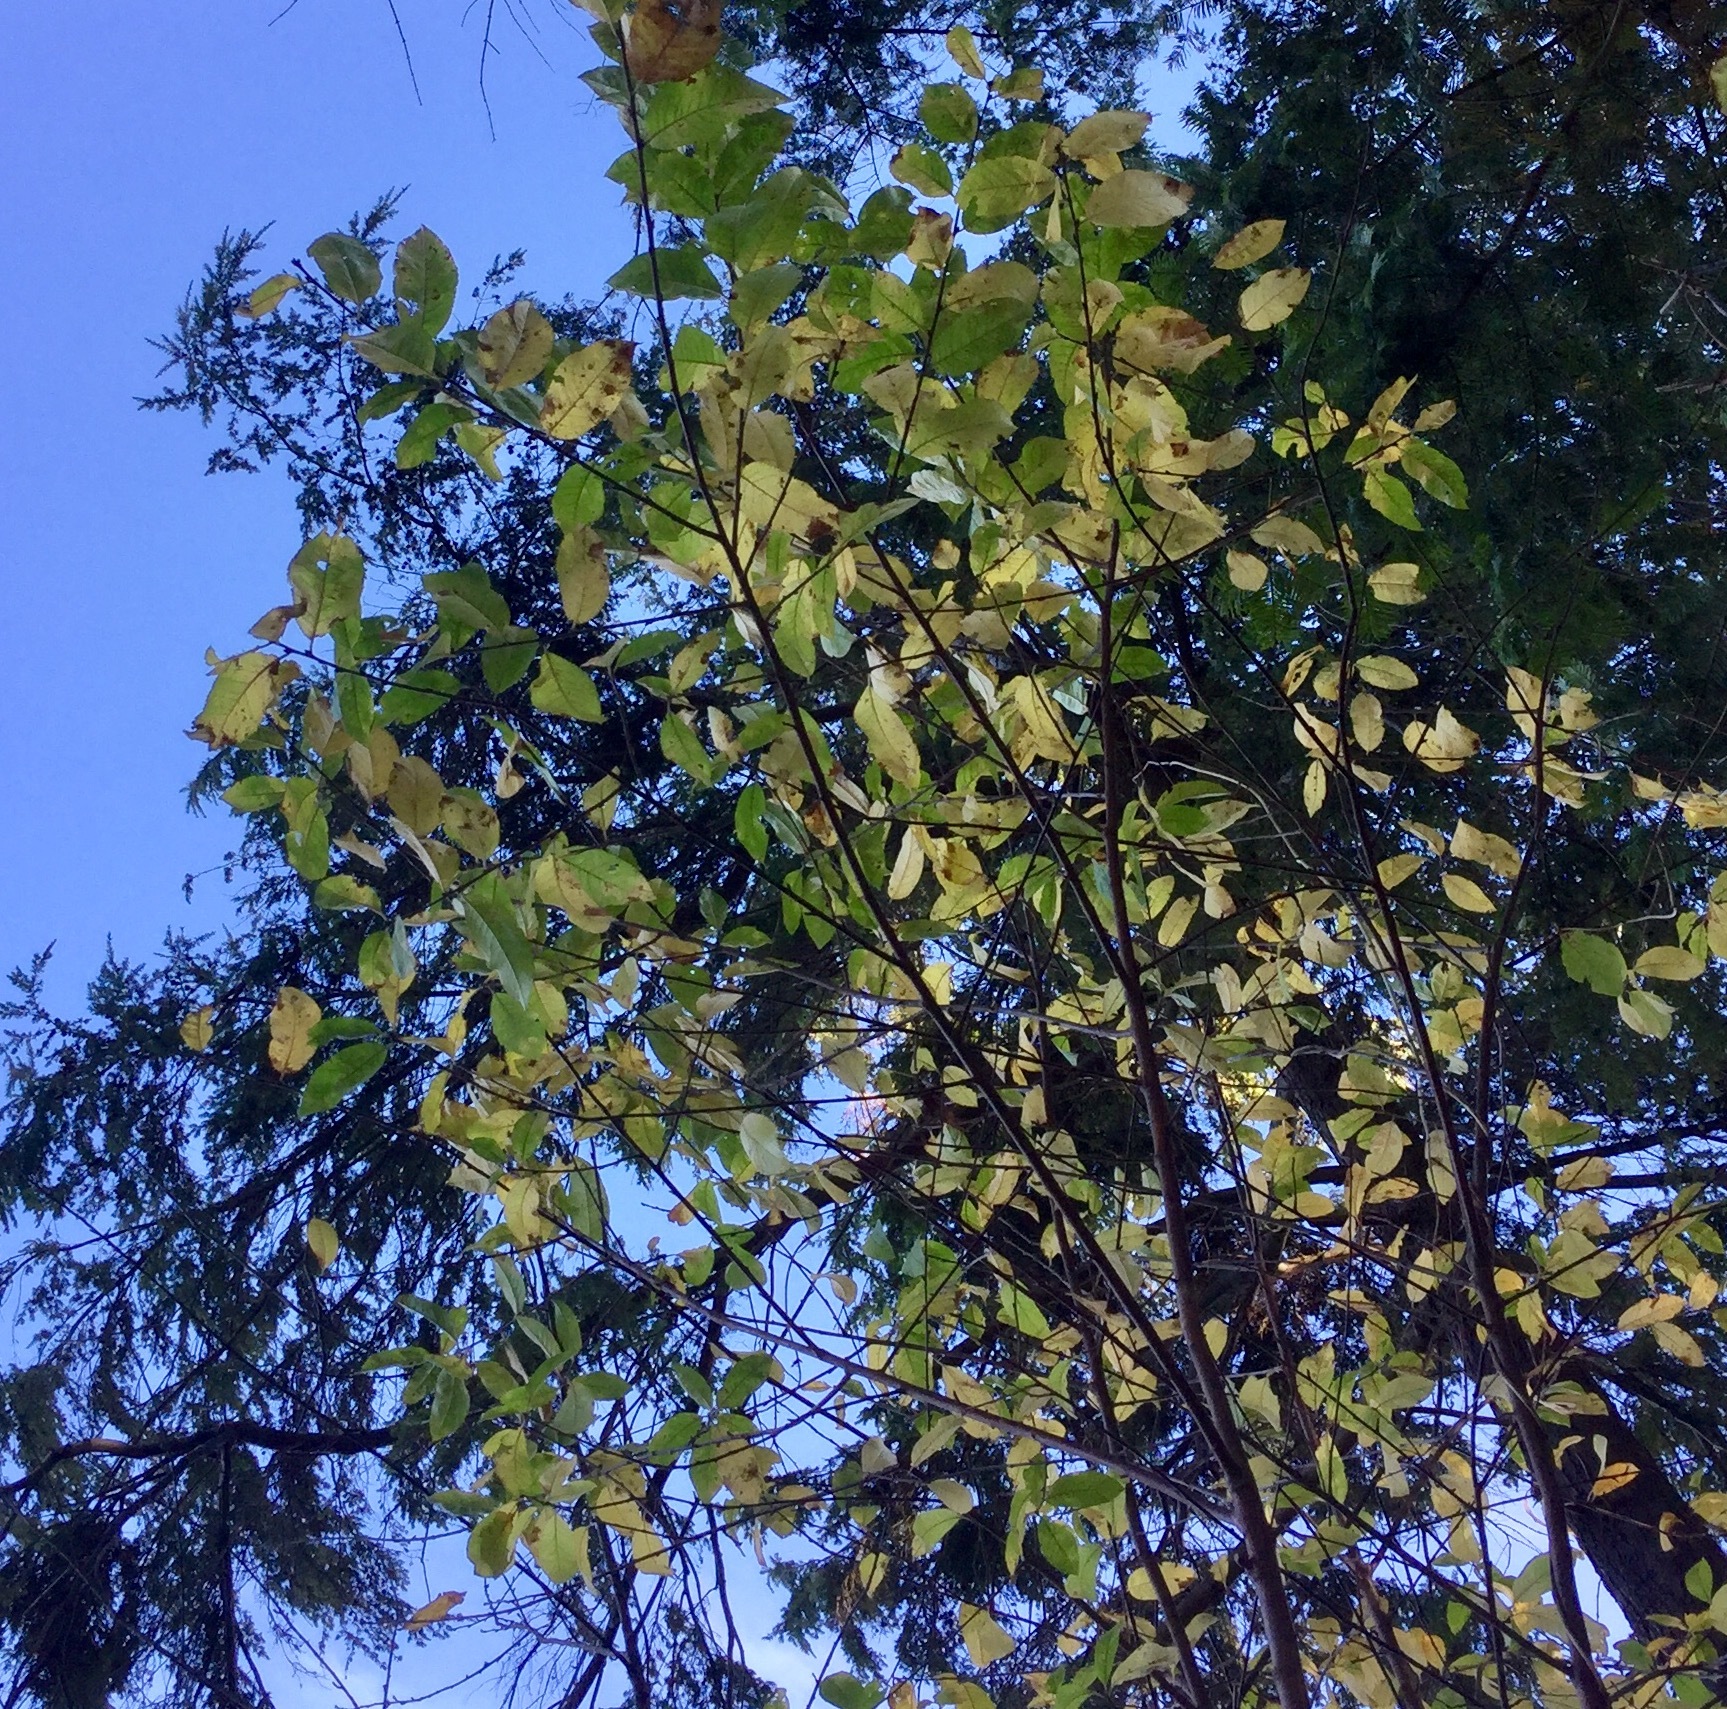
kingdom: Plantae
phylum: Tracheophyta
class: Magnoliopsida
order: Rosales
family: Rosaceae
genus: Prunus
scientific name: Prunus emarginata
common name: Bitter cherry
